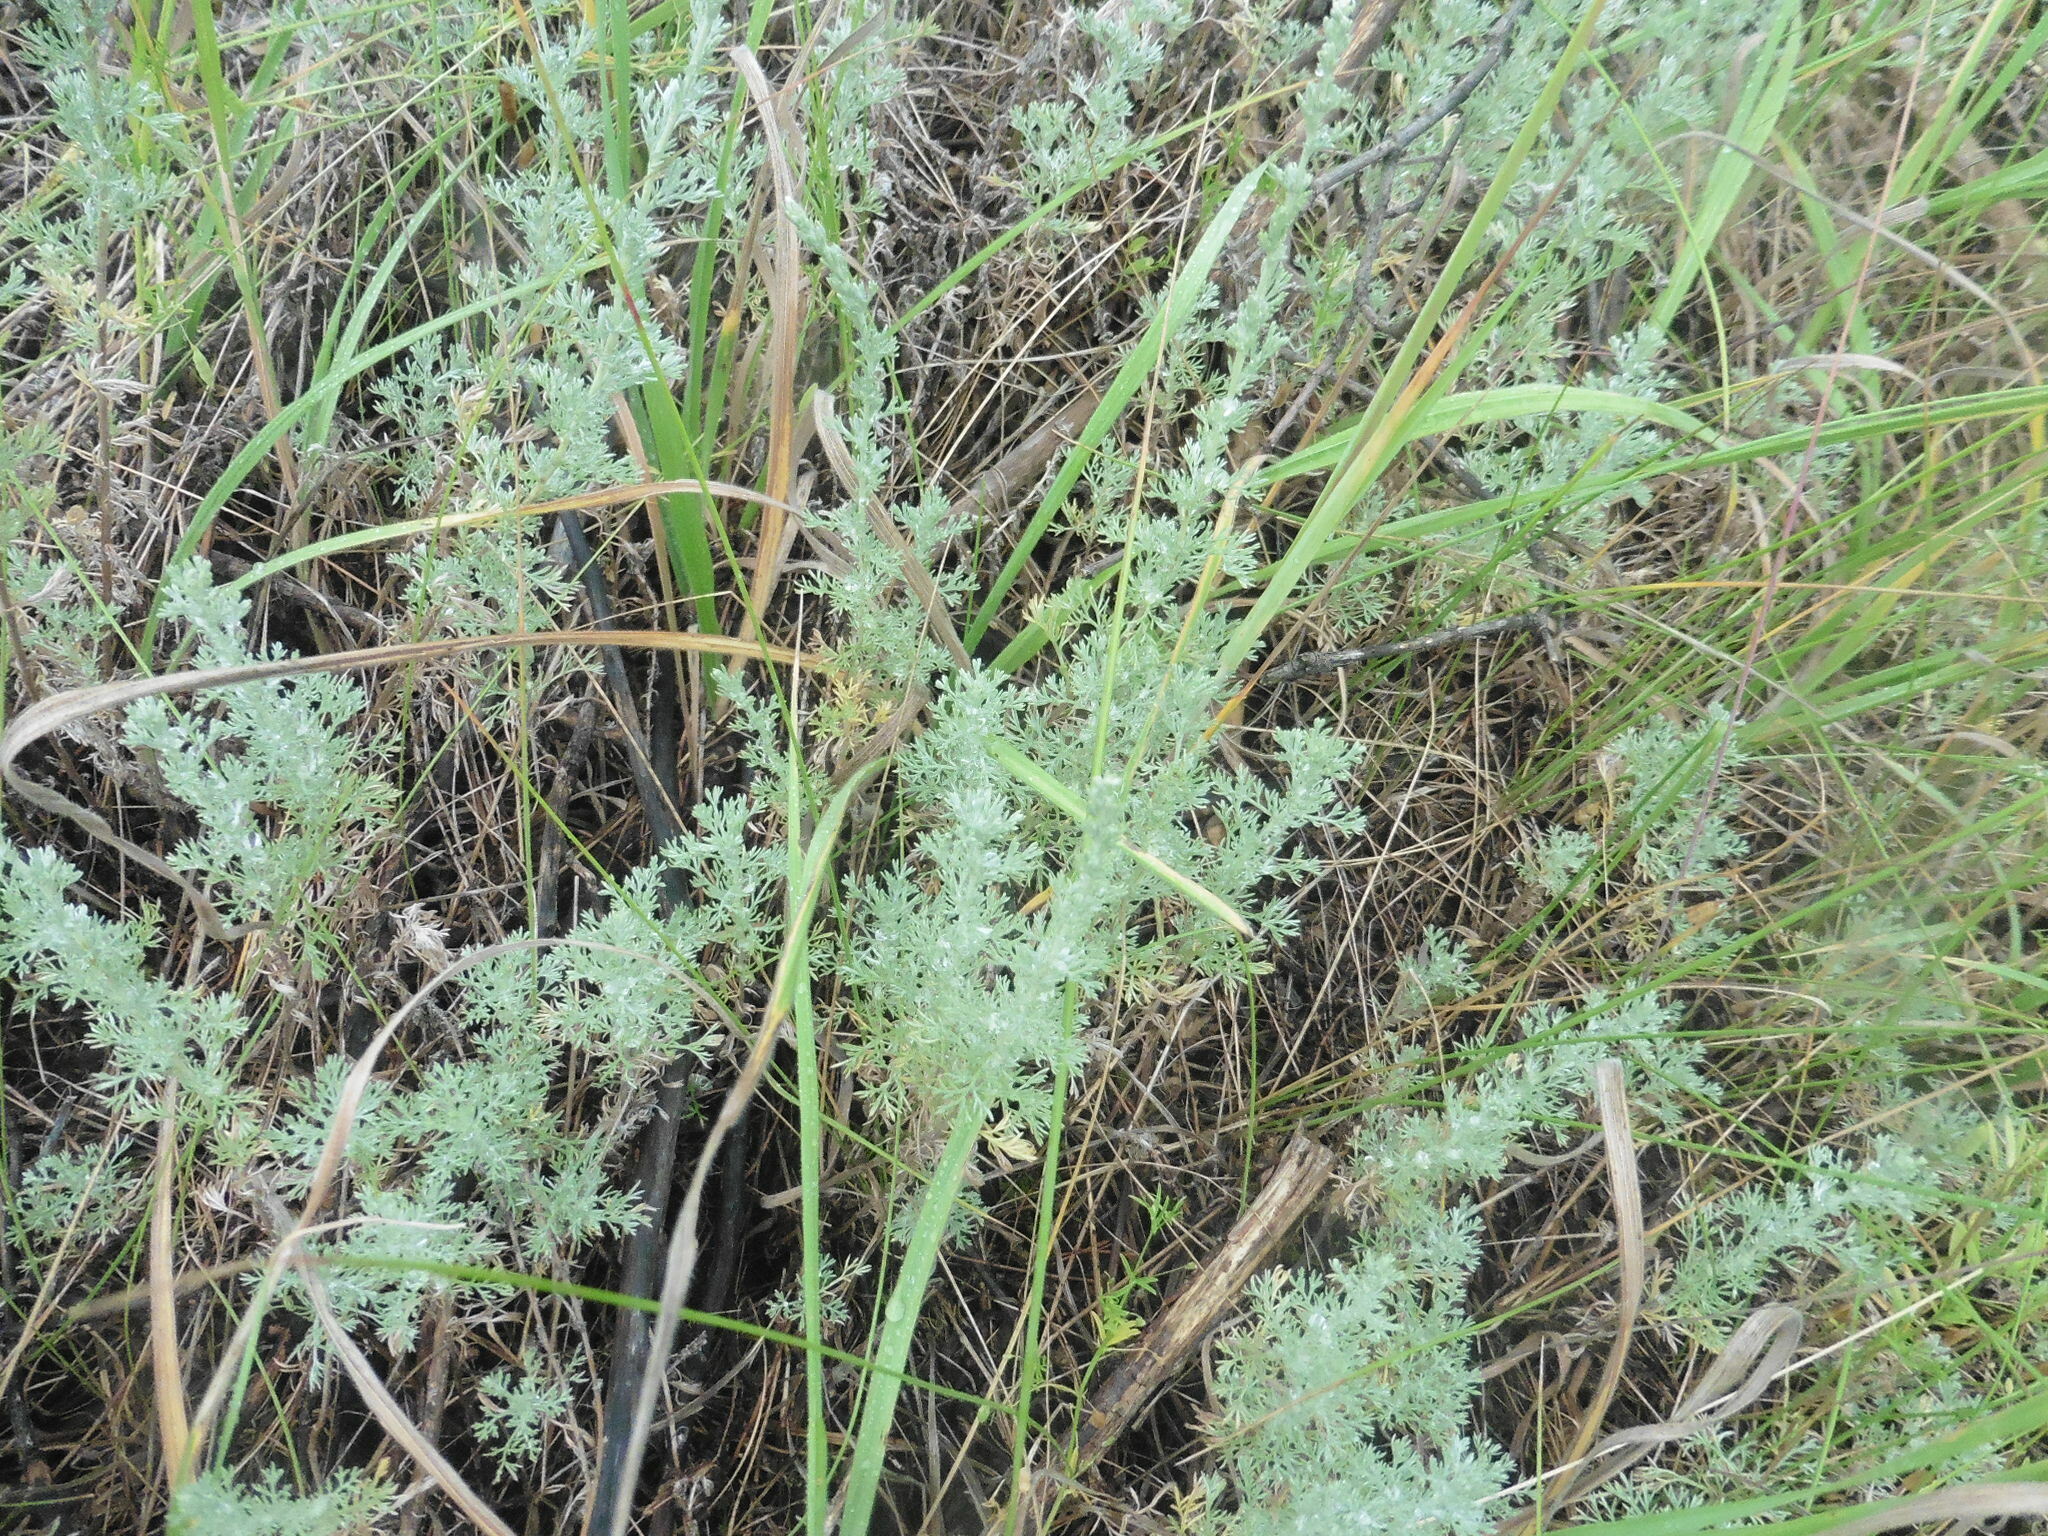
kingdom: Plantae
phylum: Tracheophyta
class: Magnoliopsida
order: Asterales
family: Asteraceae
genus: Artemisia
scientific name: Artemisia austriaca
